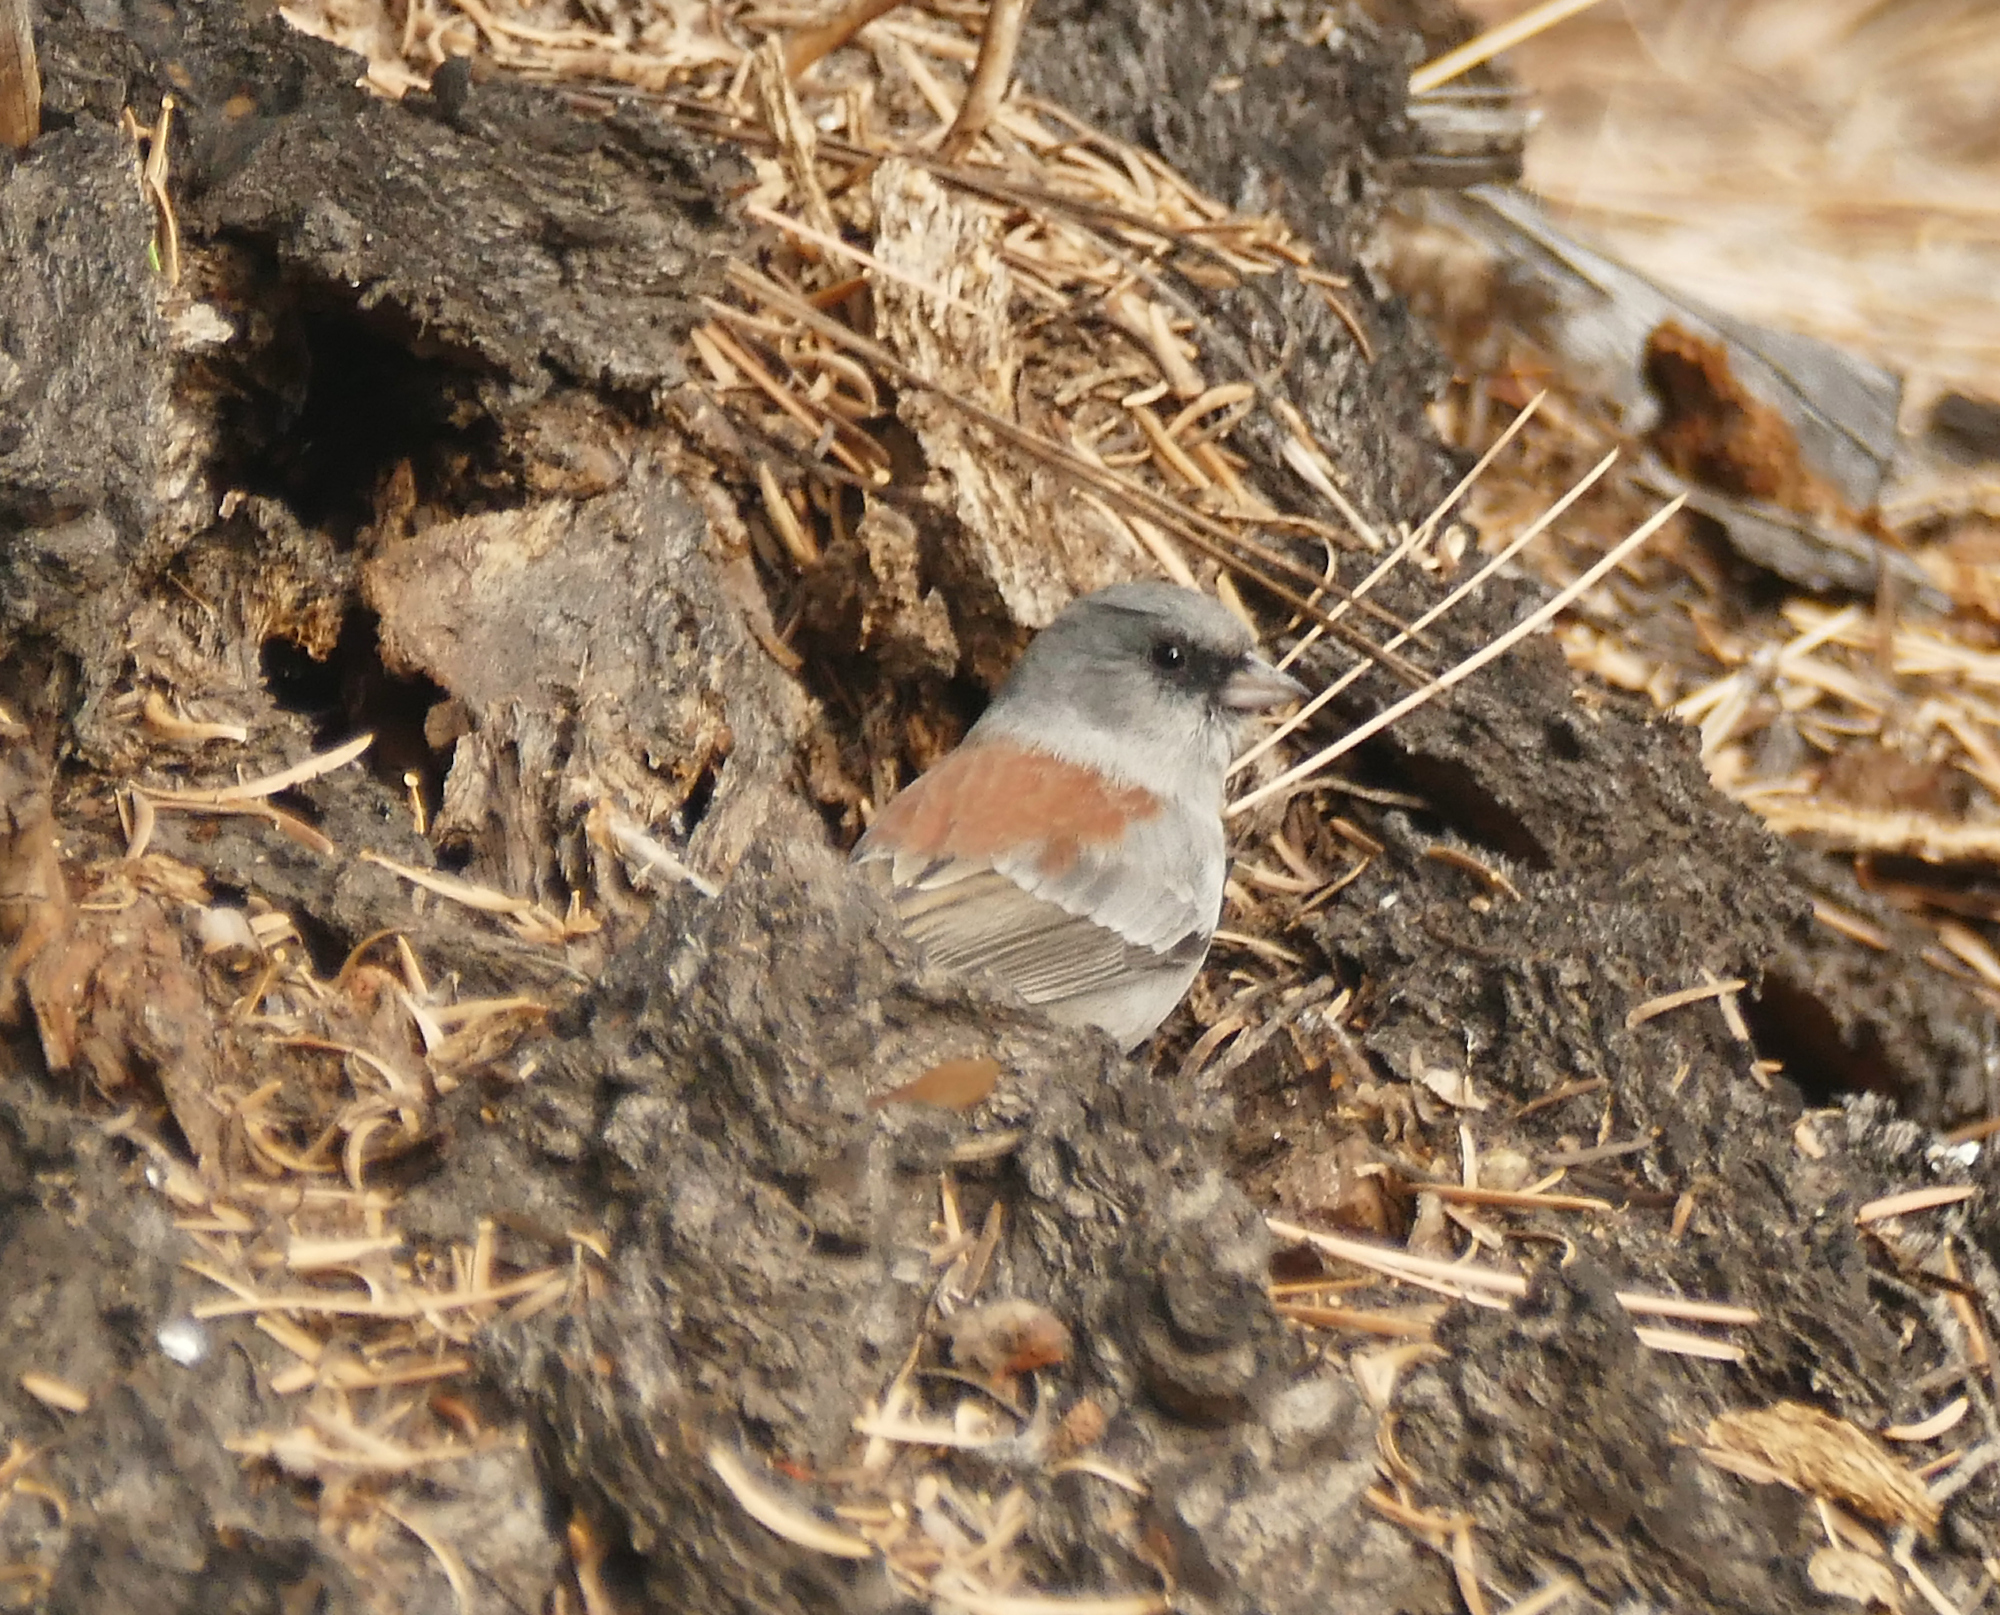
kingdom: Animalia
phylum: Chordata
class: Aves
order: Passeriformes
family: Passerellidae
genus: Junco
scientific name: Junco hyemalis
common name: Dark-eyed junco
